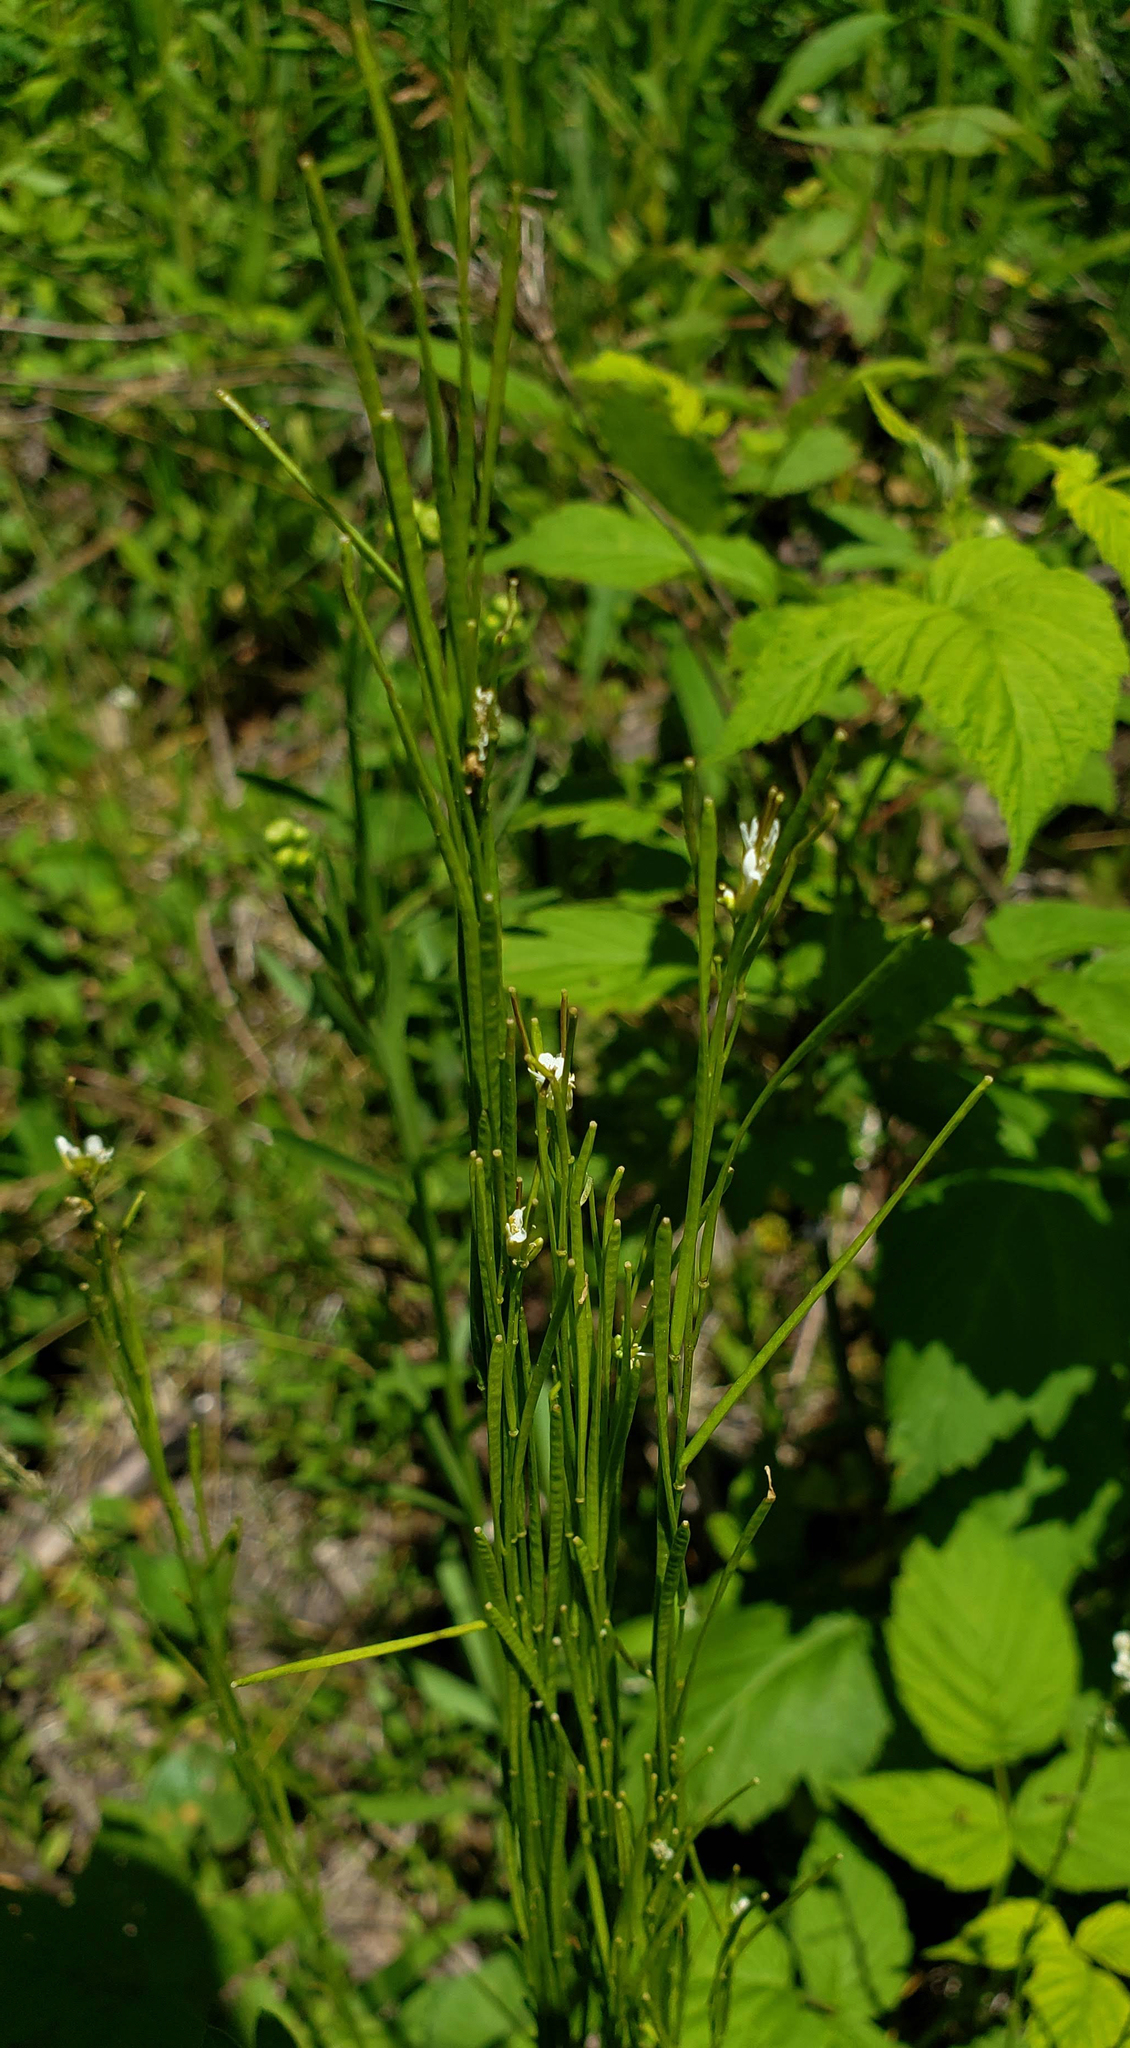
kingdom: Plantae
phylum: Tracheophyta
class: Magnoliopsida
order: Brassicales
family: Brassicaceae
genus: Arabis
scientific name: Arabis adpressipilis
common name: Soft-haired rockcress
